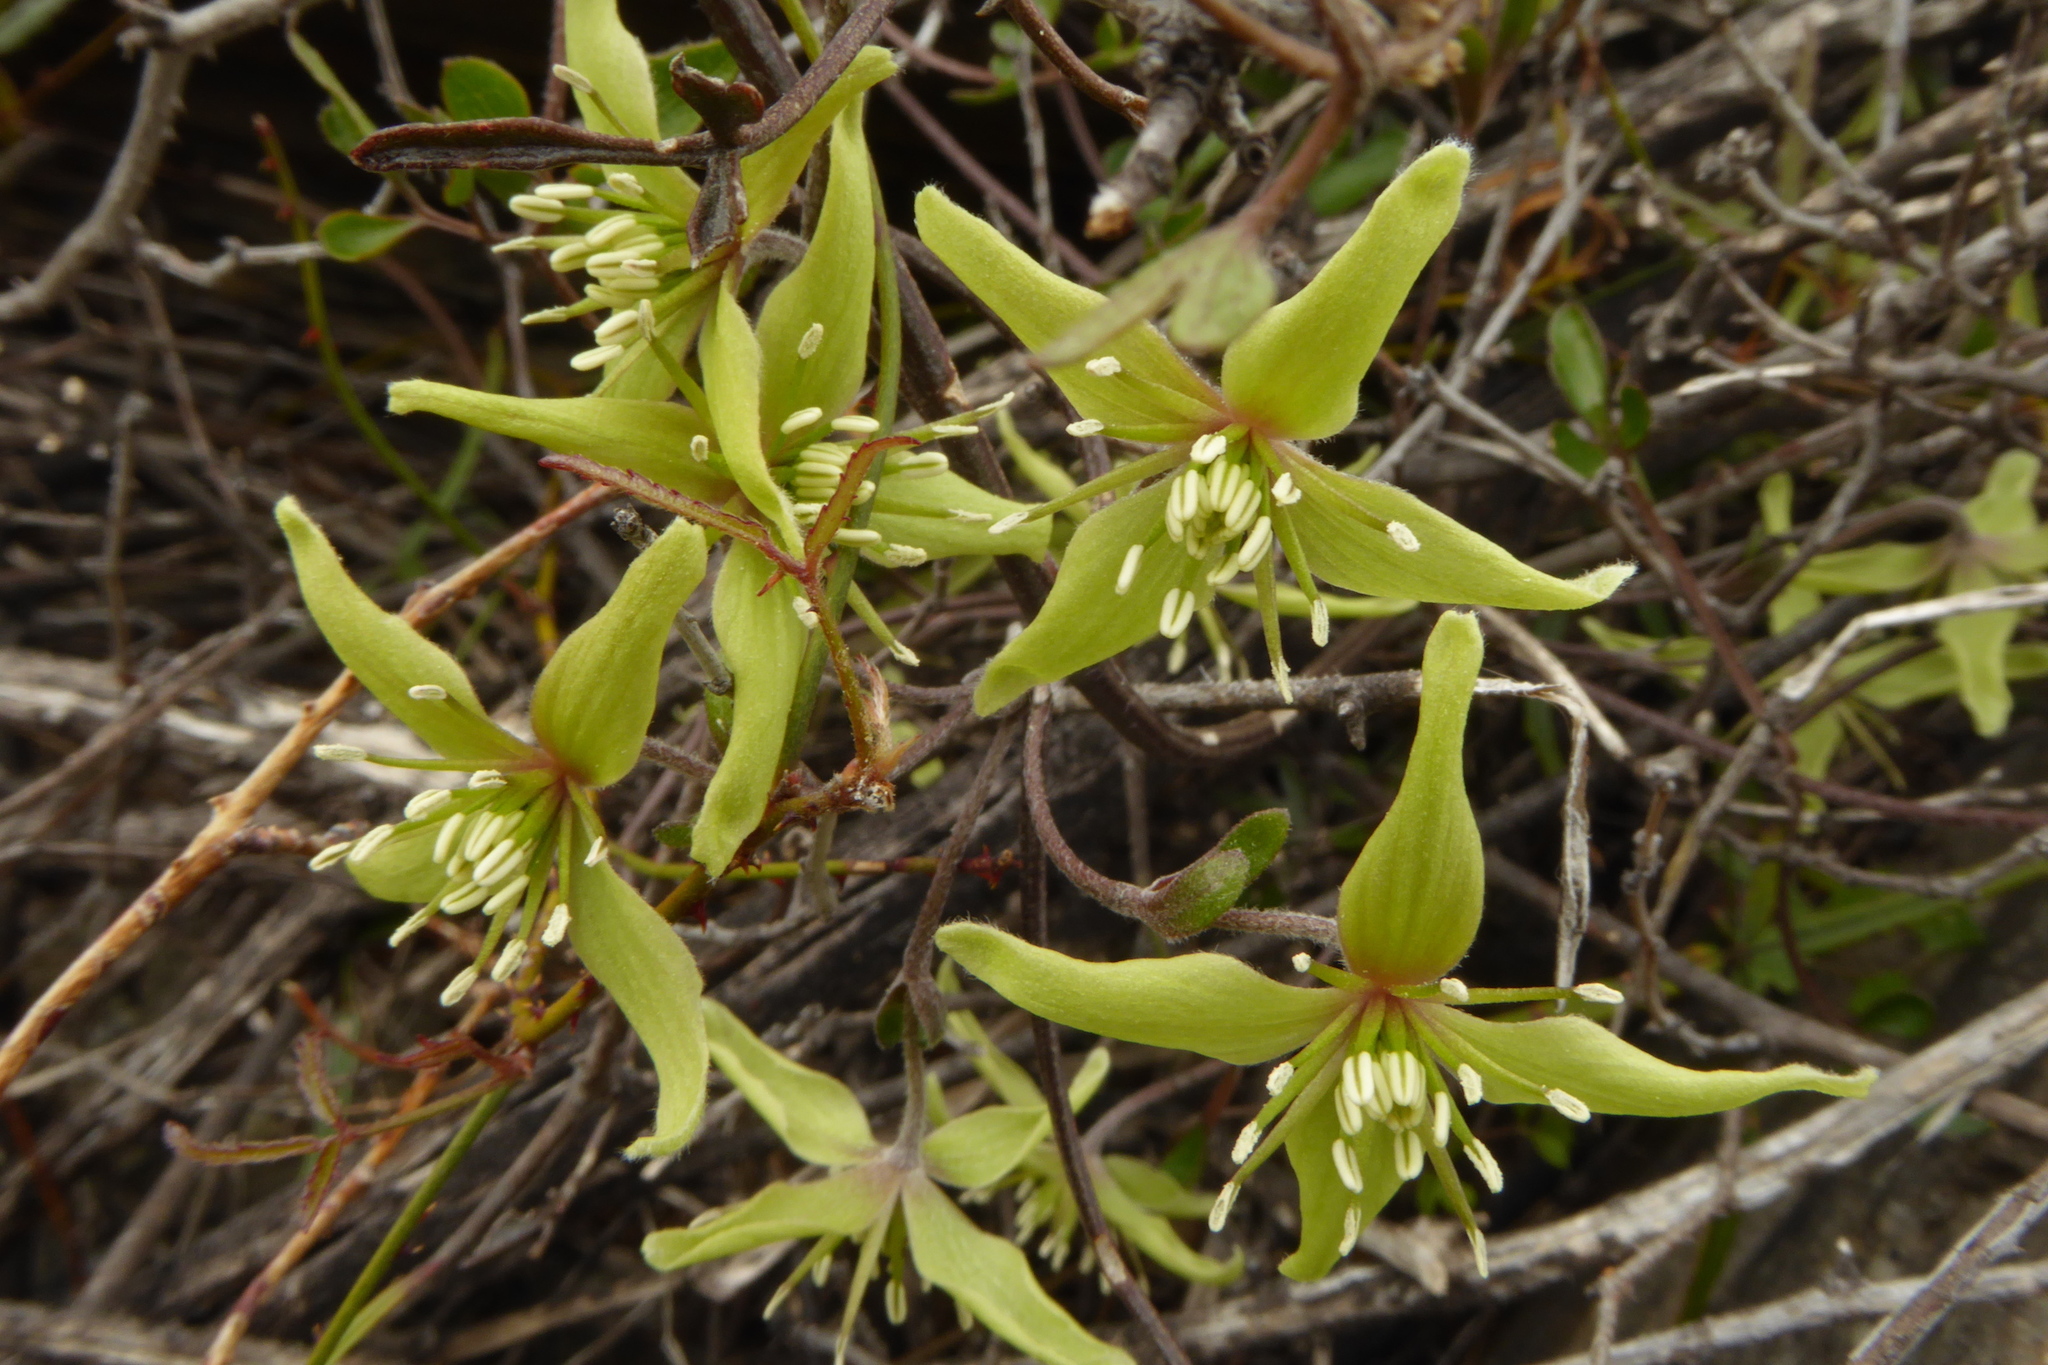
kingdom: Plantae
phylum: Tracheophyta
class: Magnoliopsida
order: Ranunculales
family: Ranunculaceae
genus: Clematis
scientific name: Clematis marata
